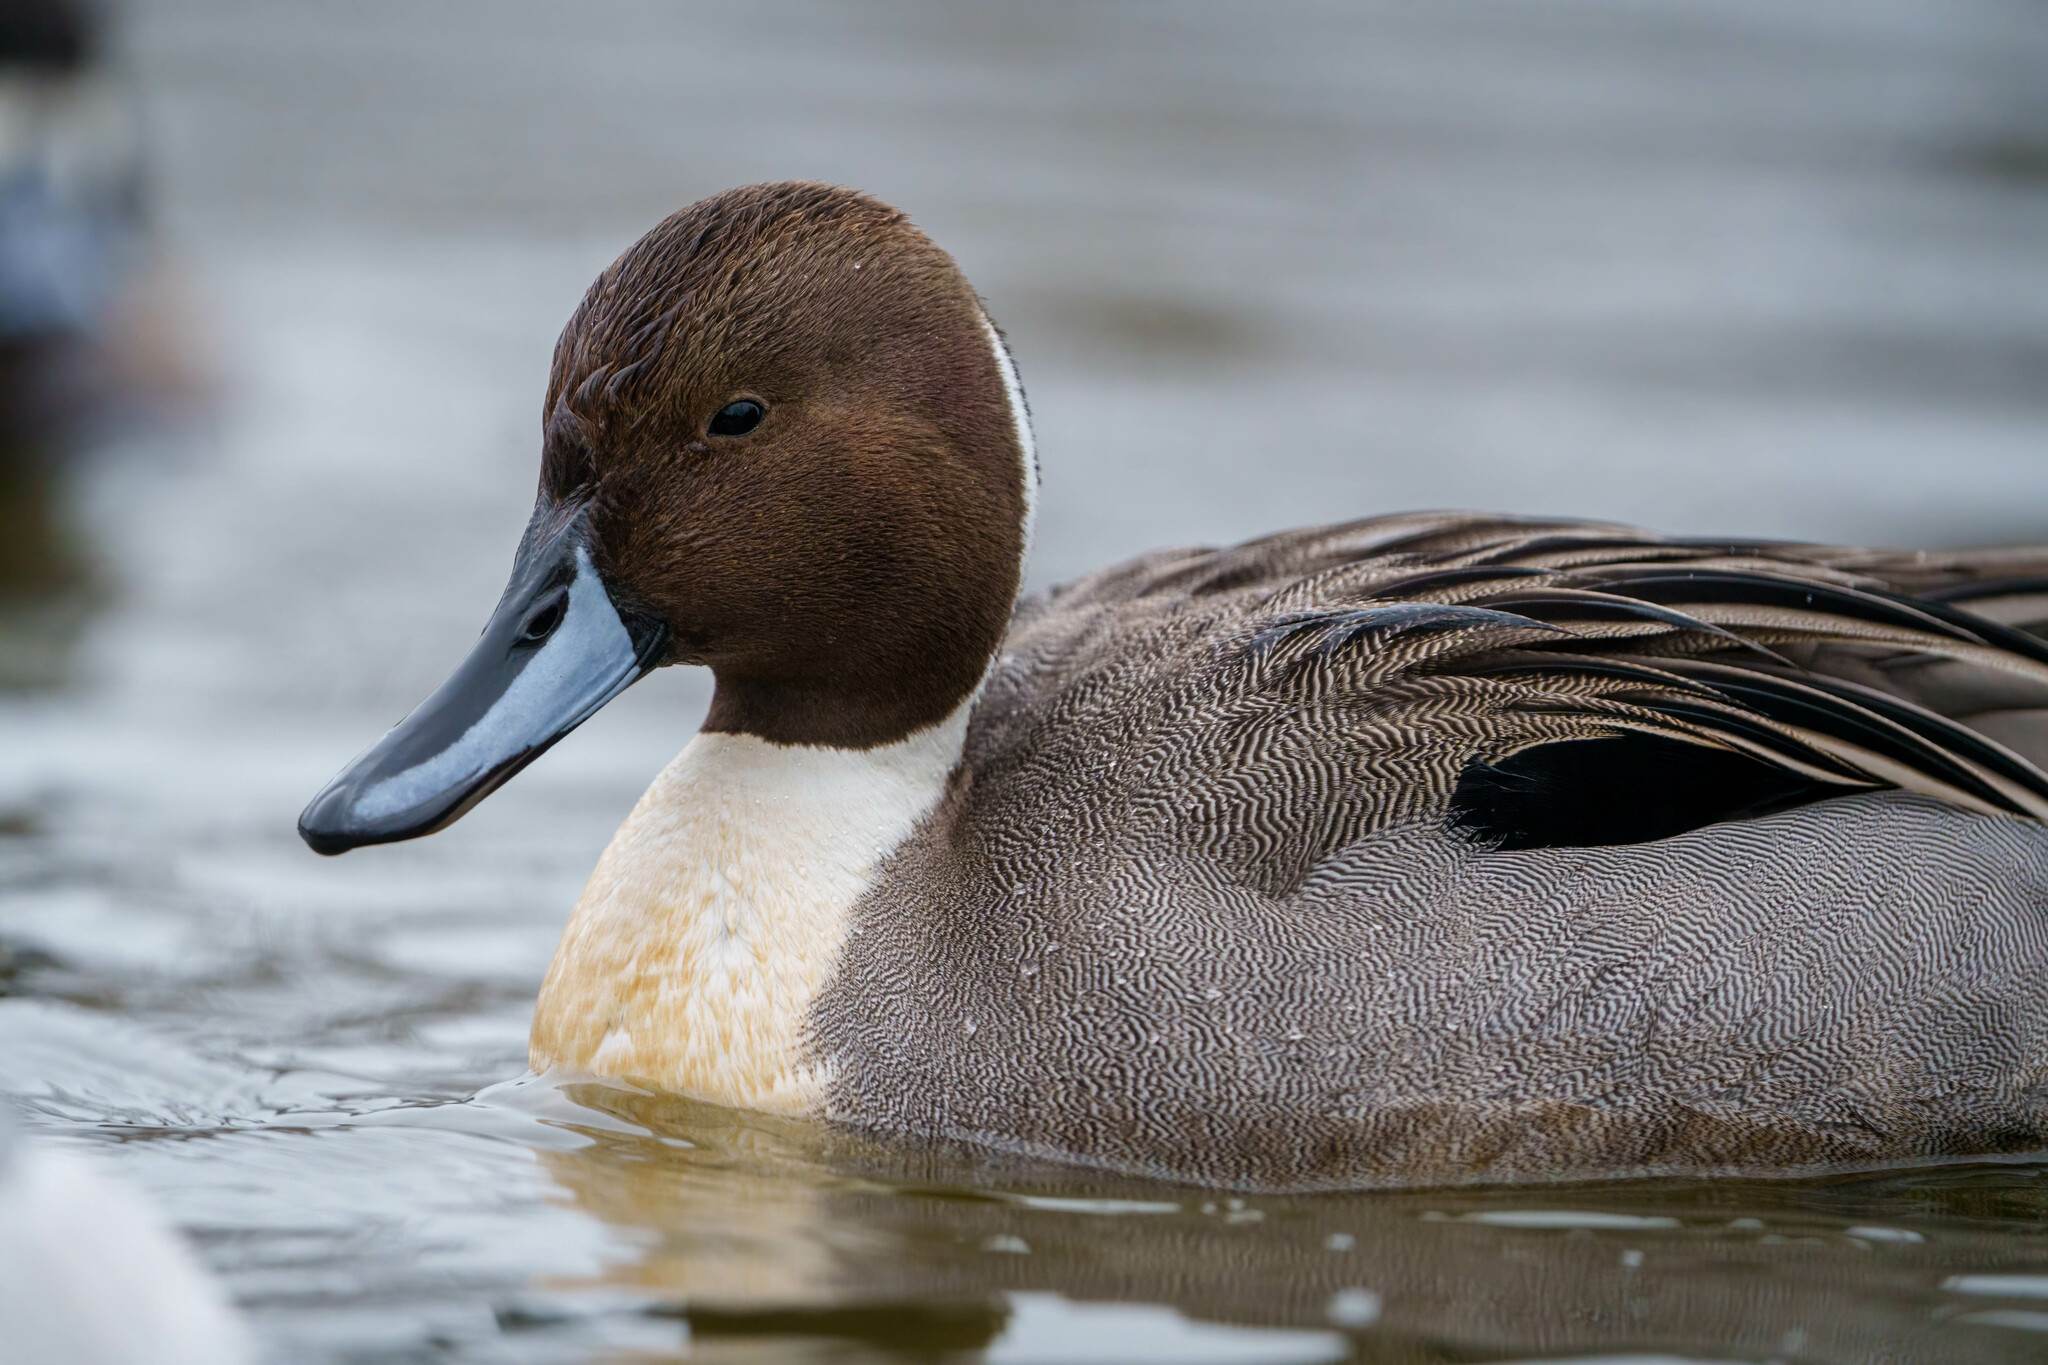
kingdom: Animalia
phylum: Chordata
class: Aves
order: Anseriformes
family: Anatidae
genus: Anas
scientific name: Anas acuta
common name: Northern pintail
